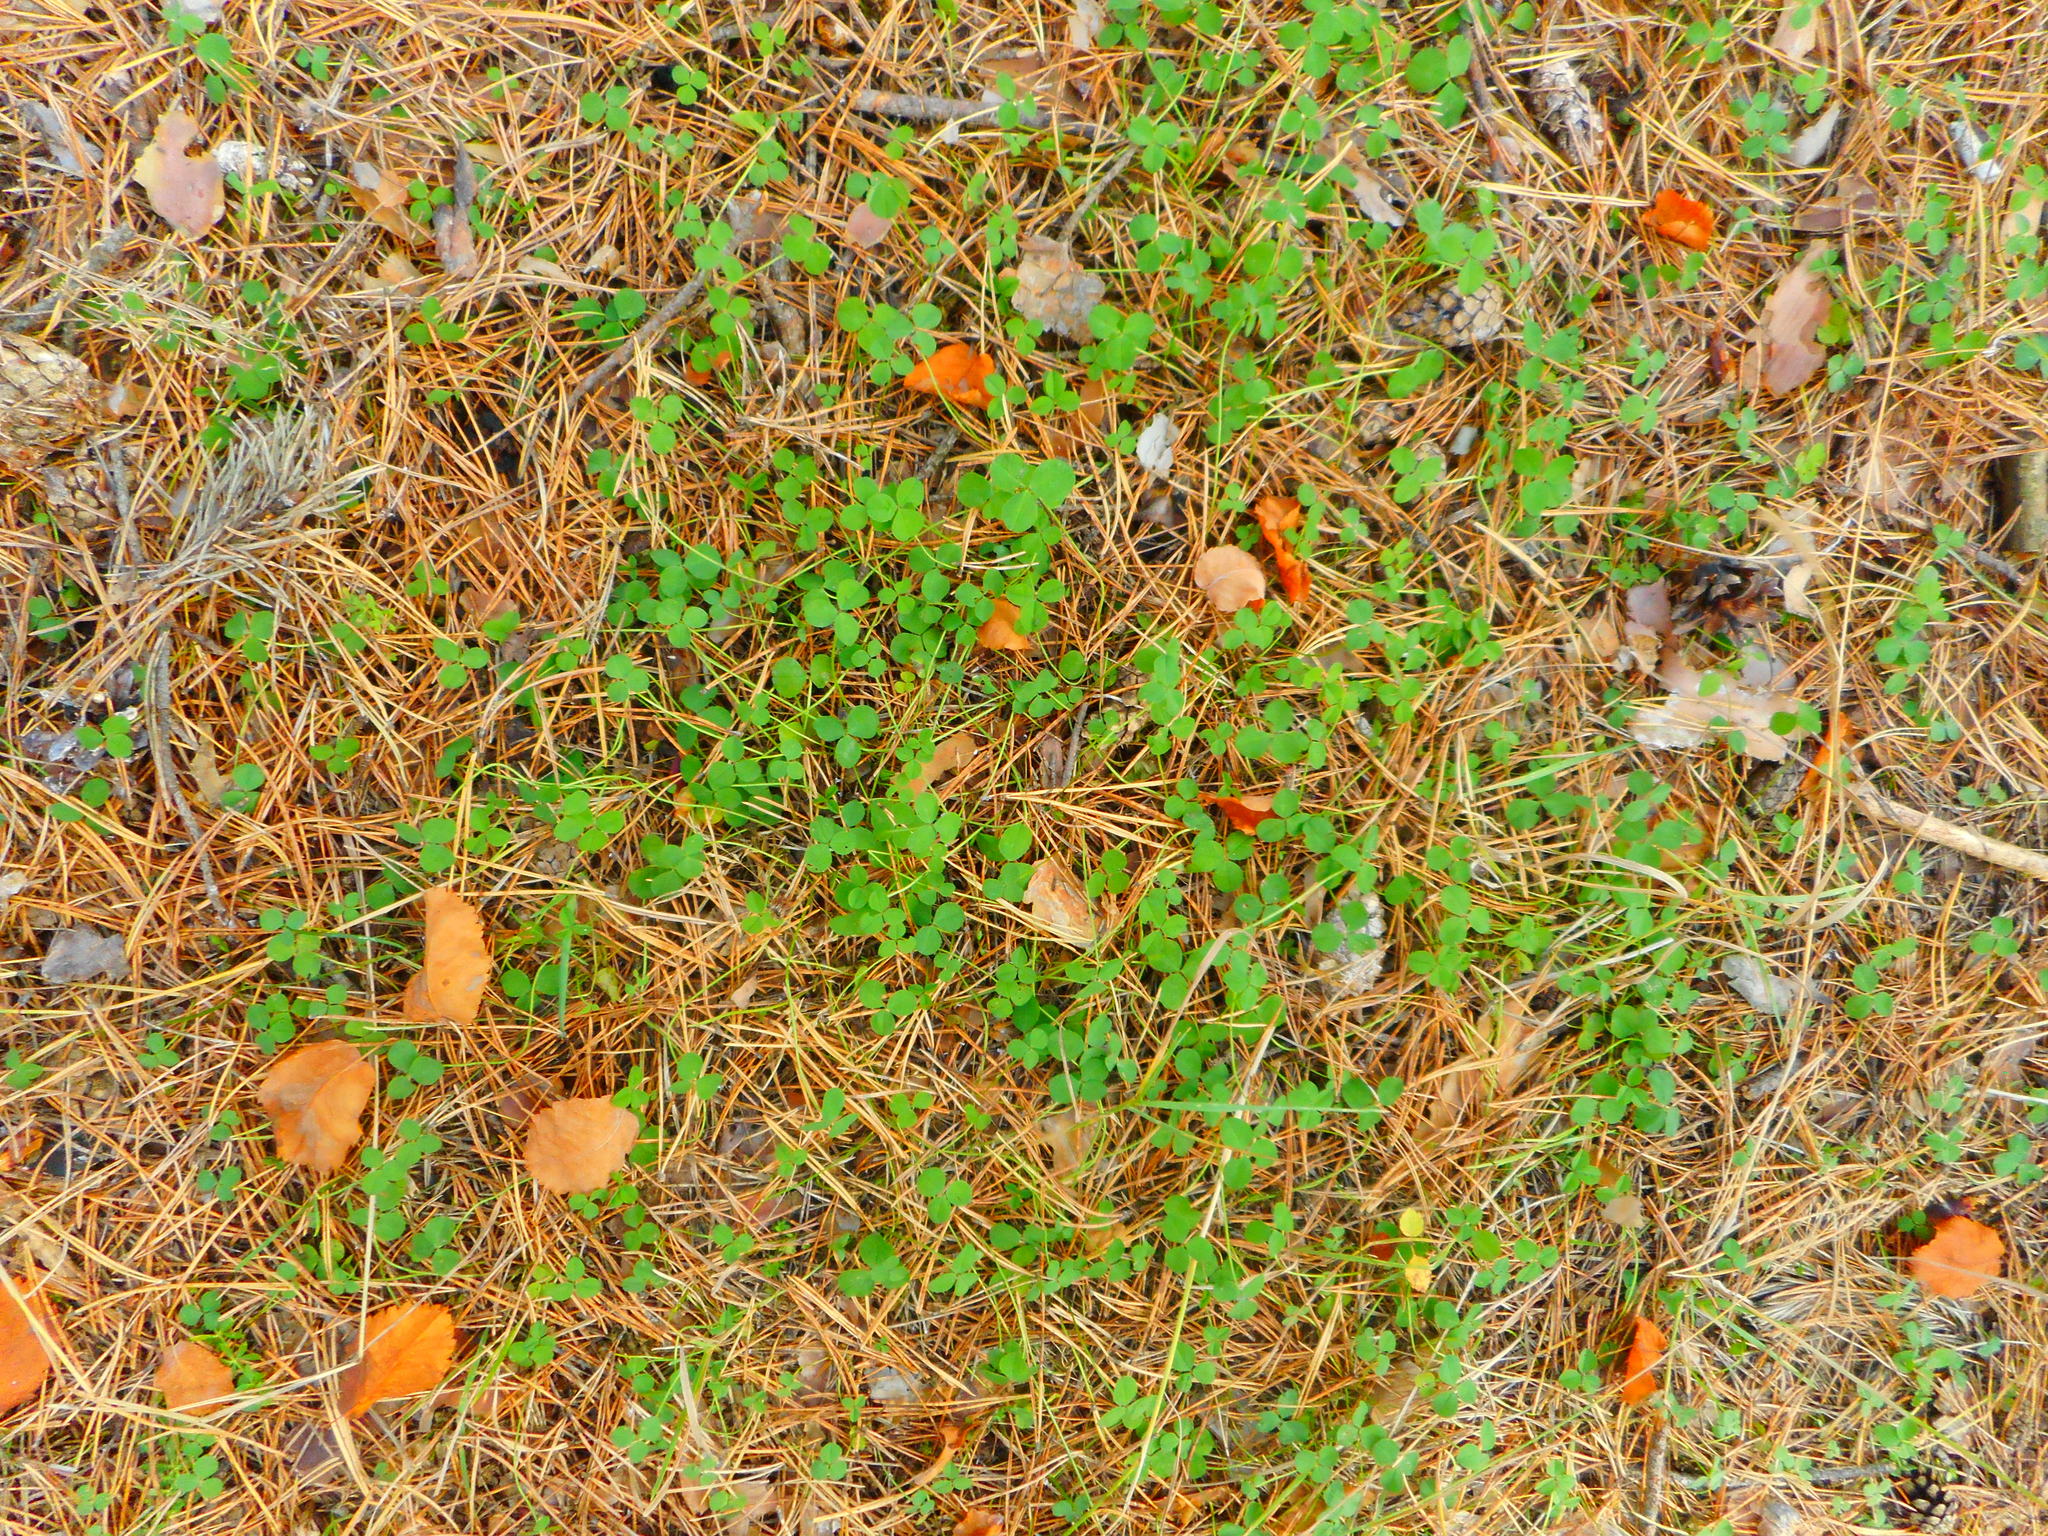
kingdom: Plantae
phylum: Tracheophyta
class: Magnoliopsida
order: Fabales
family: Fabaceae
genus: Trifolium
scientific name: Trifolium repens
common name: White clover
